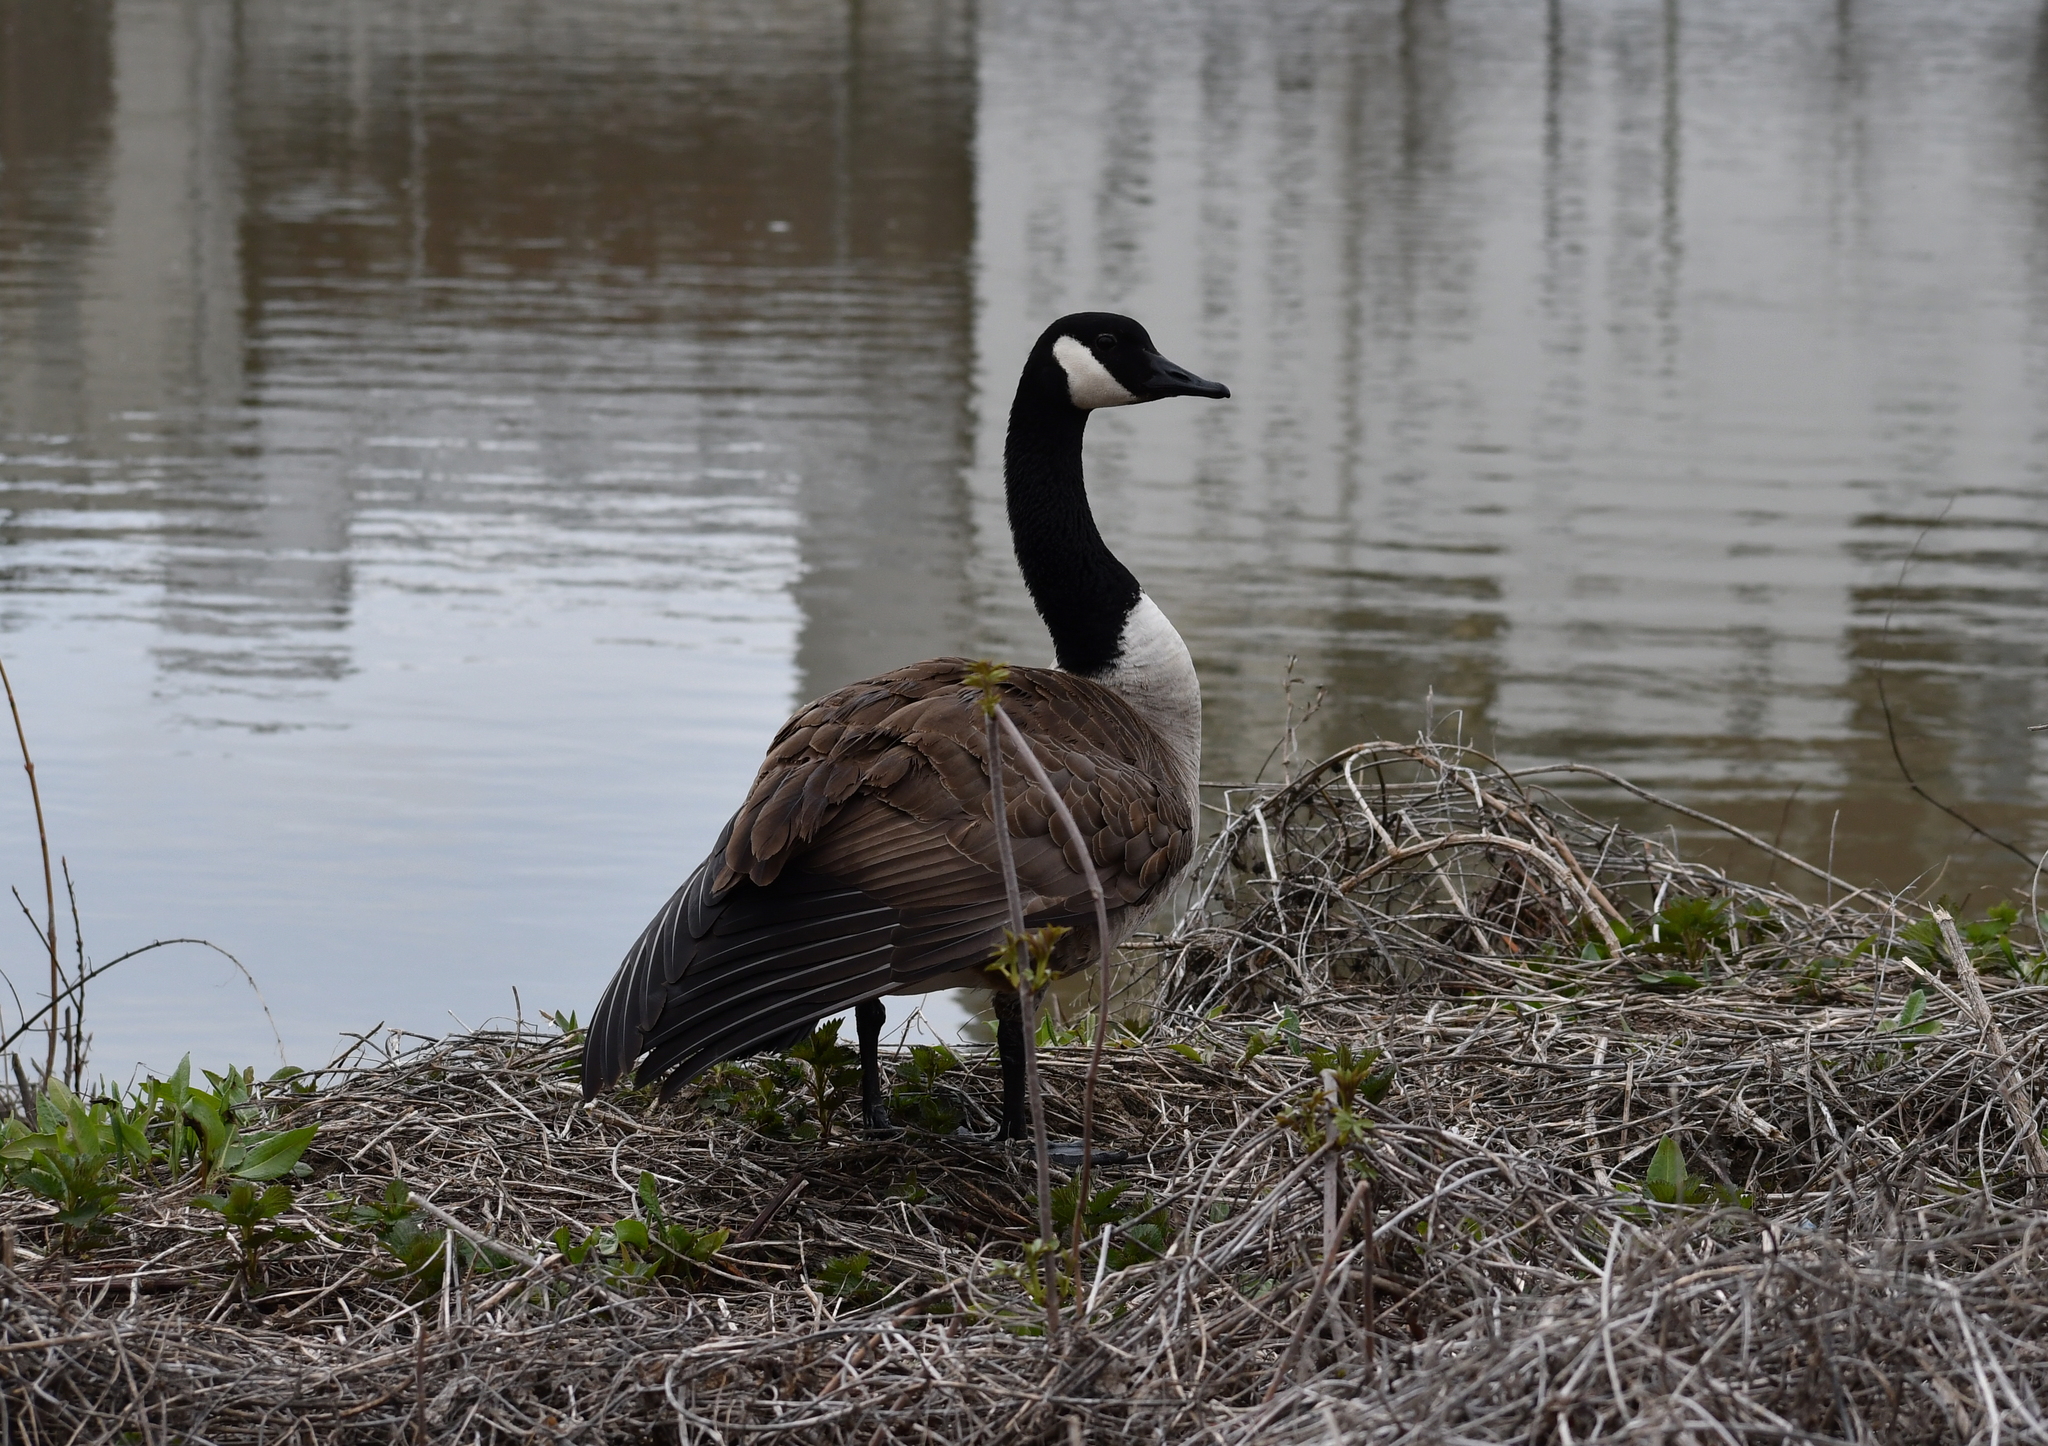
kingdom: Animalia
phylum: Chordata
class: Aves
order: Anseriformes
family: Anatidae
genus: Branta
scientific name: Branta canadensis
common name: Canada goose
